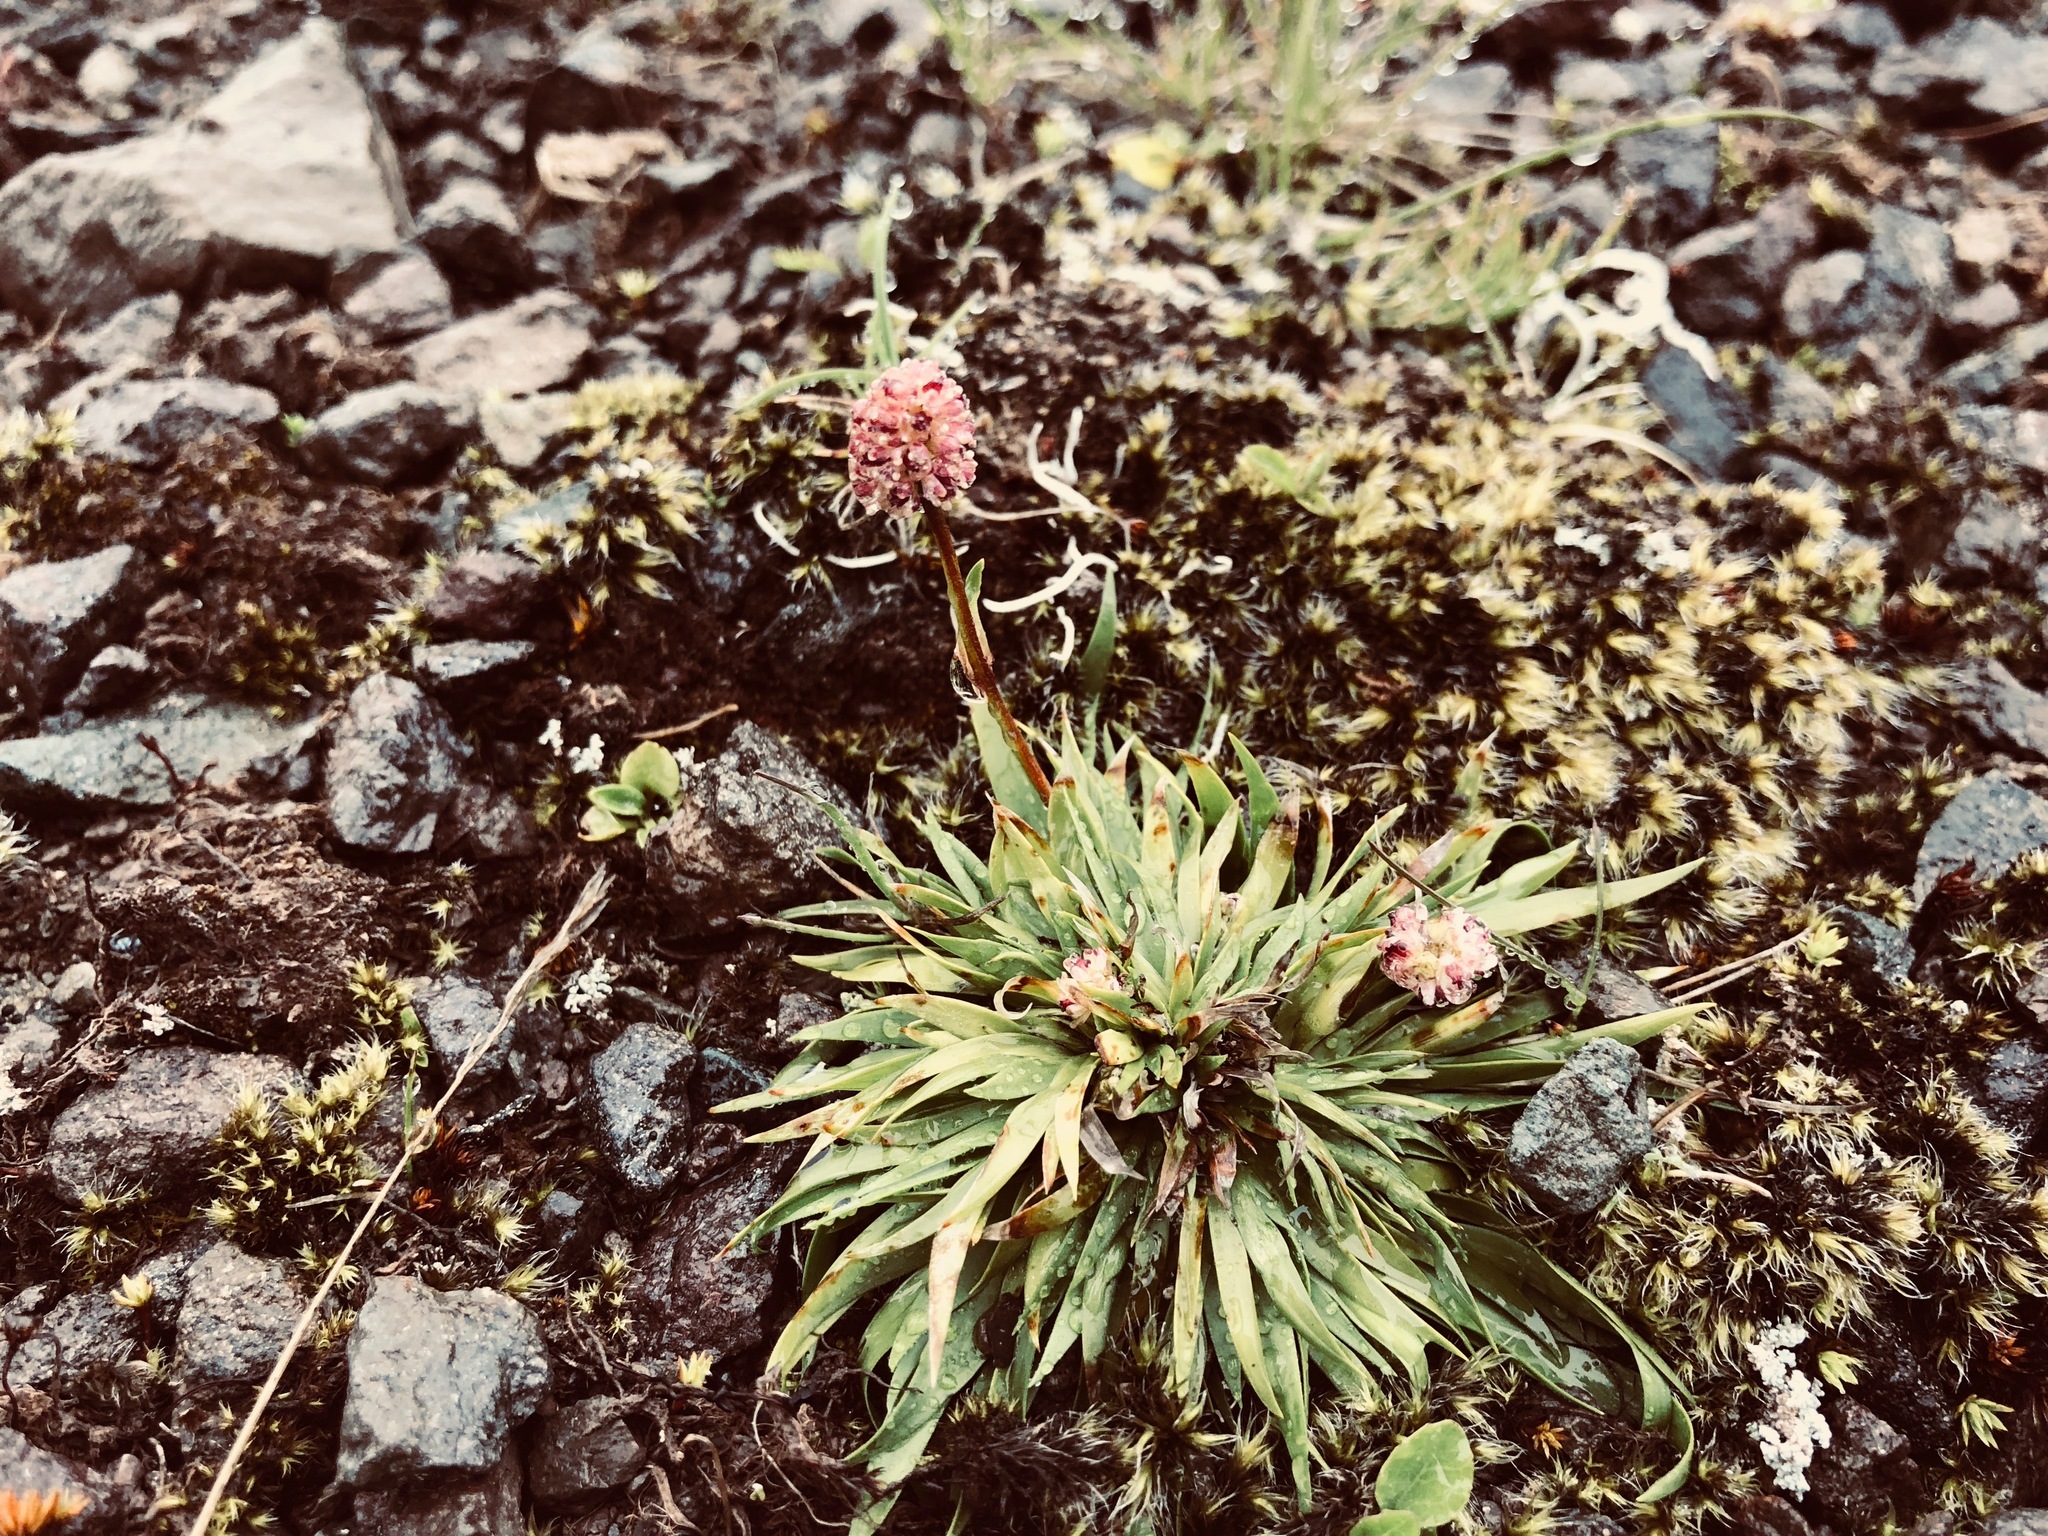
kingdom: Plantae
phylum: Tracheophyta
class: Liliopsida
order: Alismatales
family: Tofieldiaceae
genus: Tofieldia
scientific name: Tofieldia coccinea
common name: Northern false asphodel
